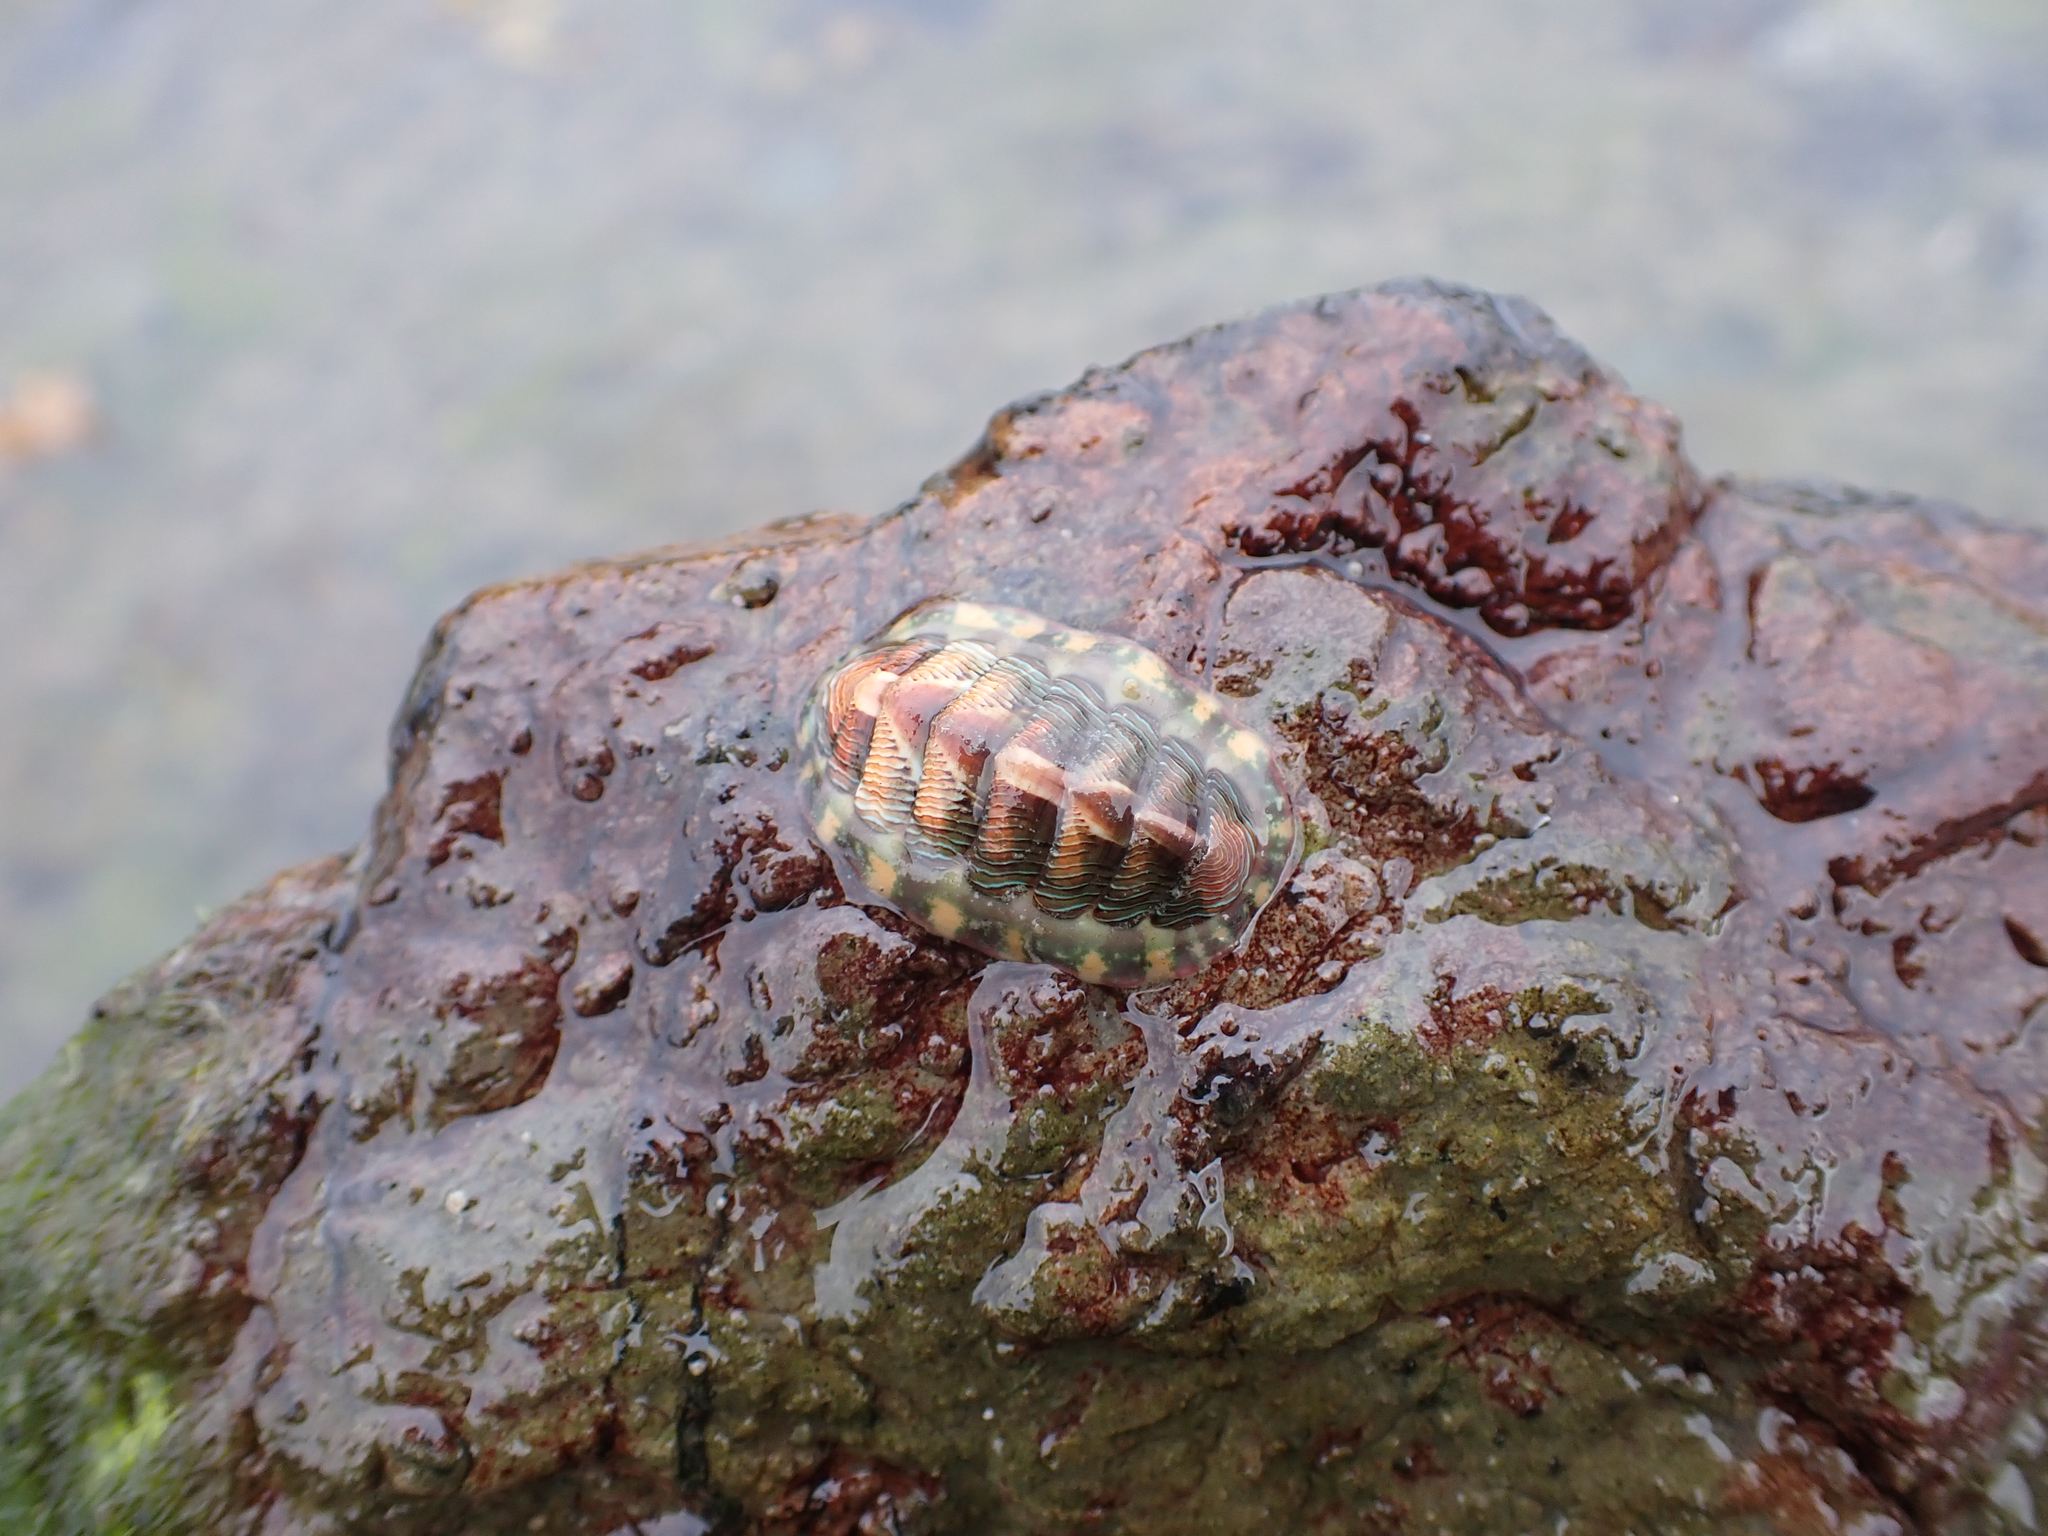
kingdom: Animalia
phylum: Mollusca
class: Polyplacophora
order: Chitonida
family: Tonicellidae
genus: Tonicella
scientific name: Tonicella lineata
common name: Lined chiton
